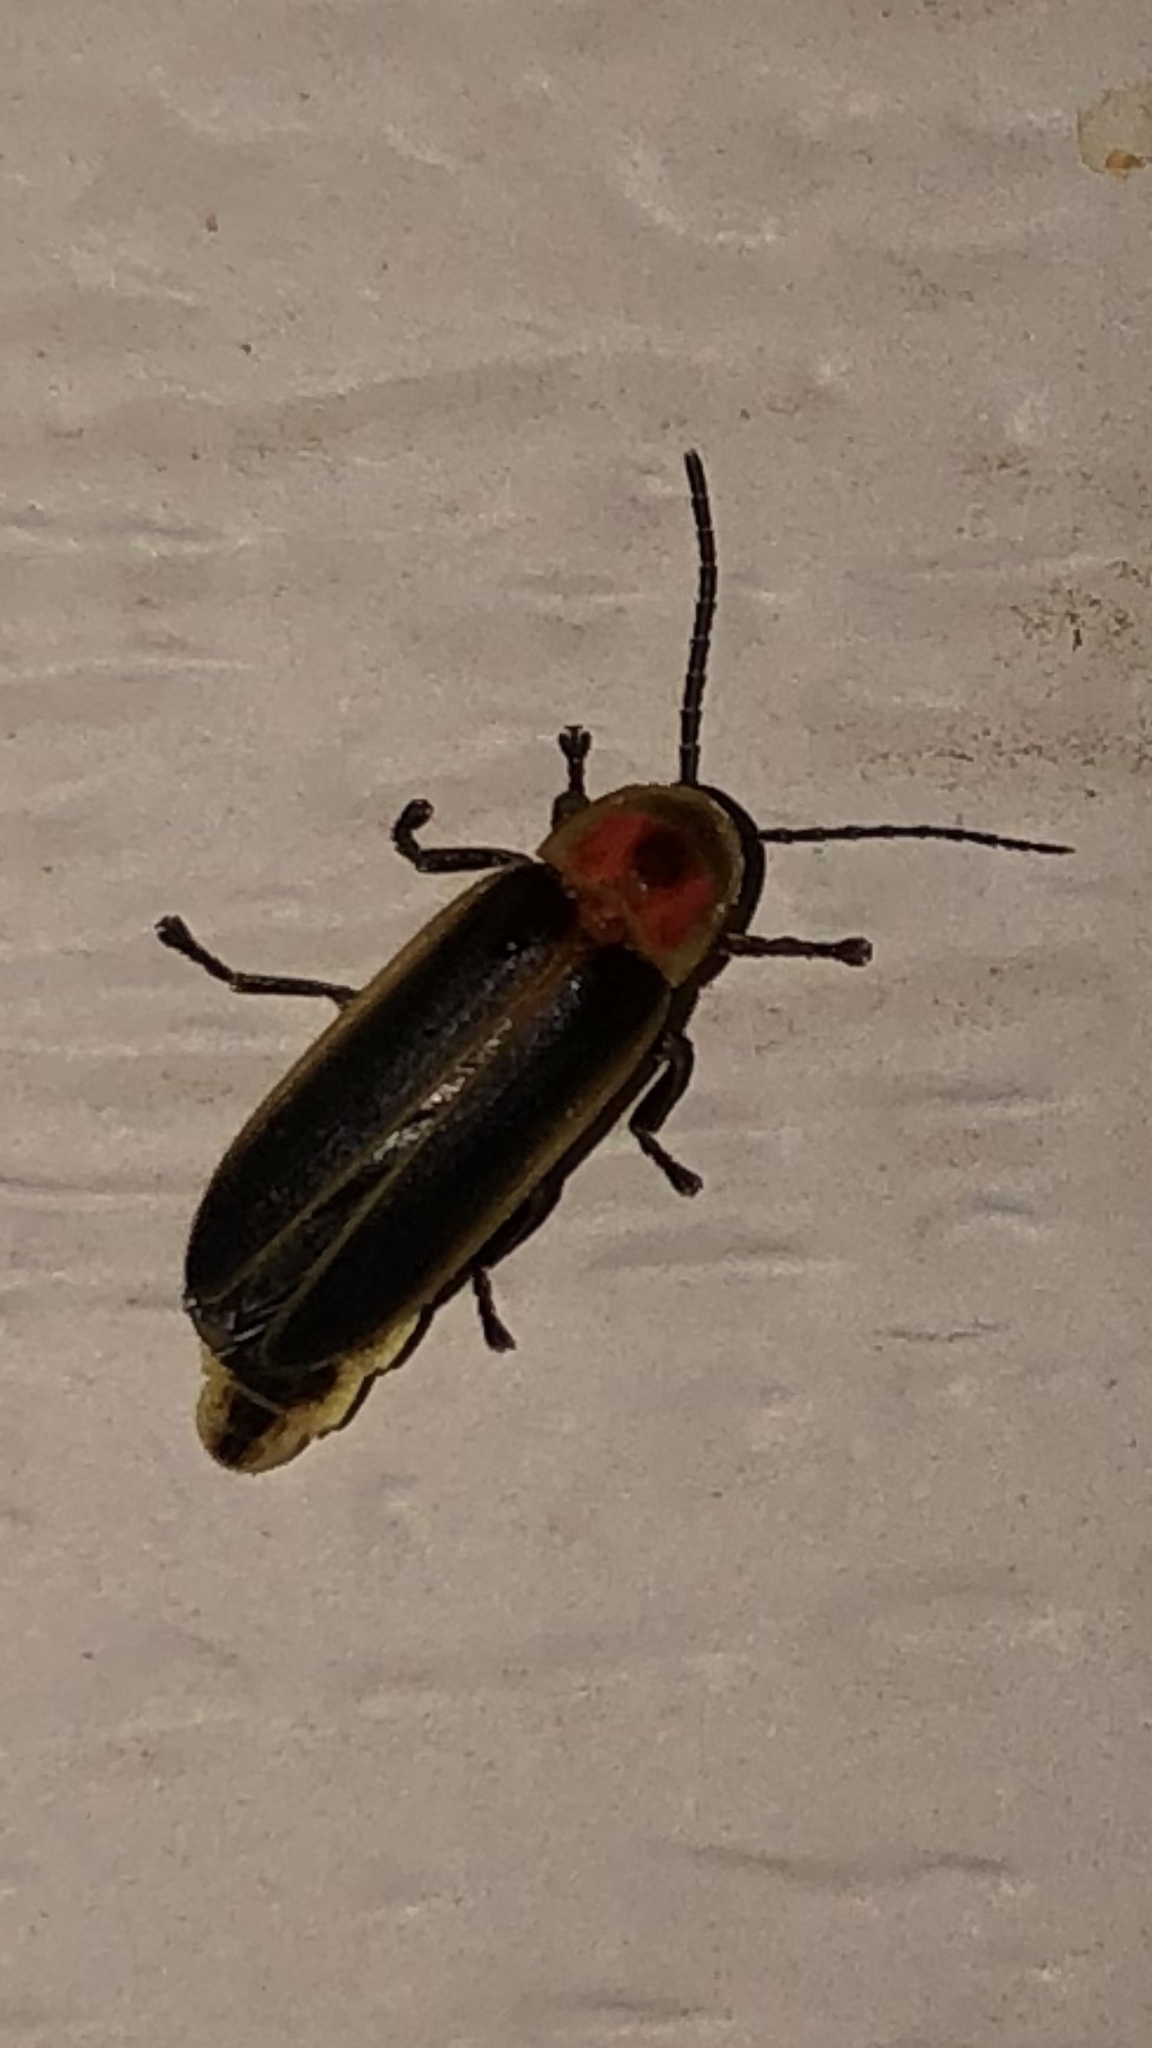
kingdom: Animalia
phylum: Arthropoda
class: Insecta
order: Coleoptera
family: Lampyridae
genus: Photinus
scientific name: Photinus pyralis
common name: Big dipper firefly
